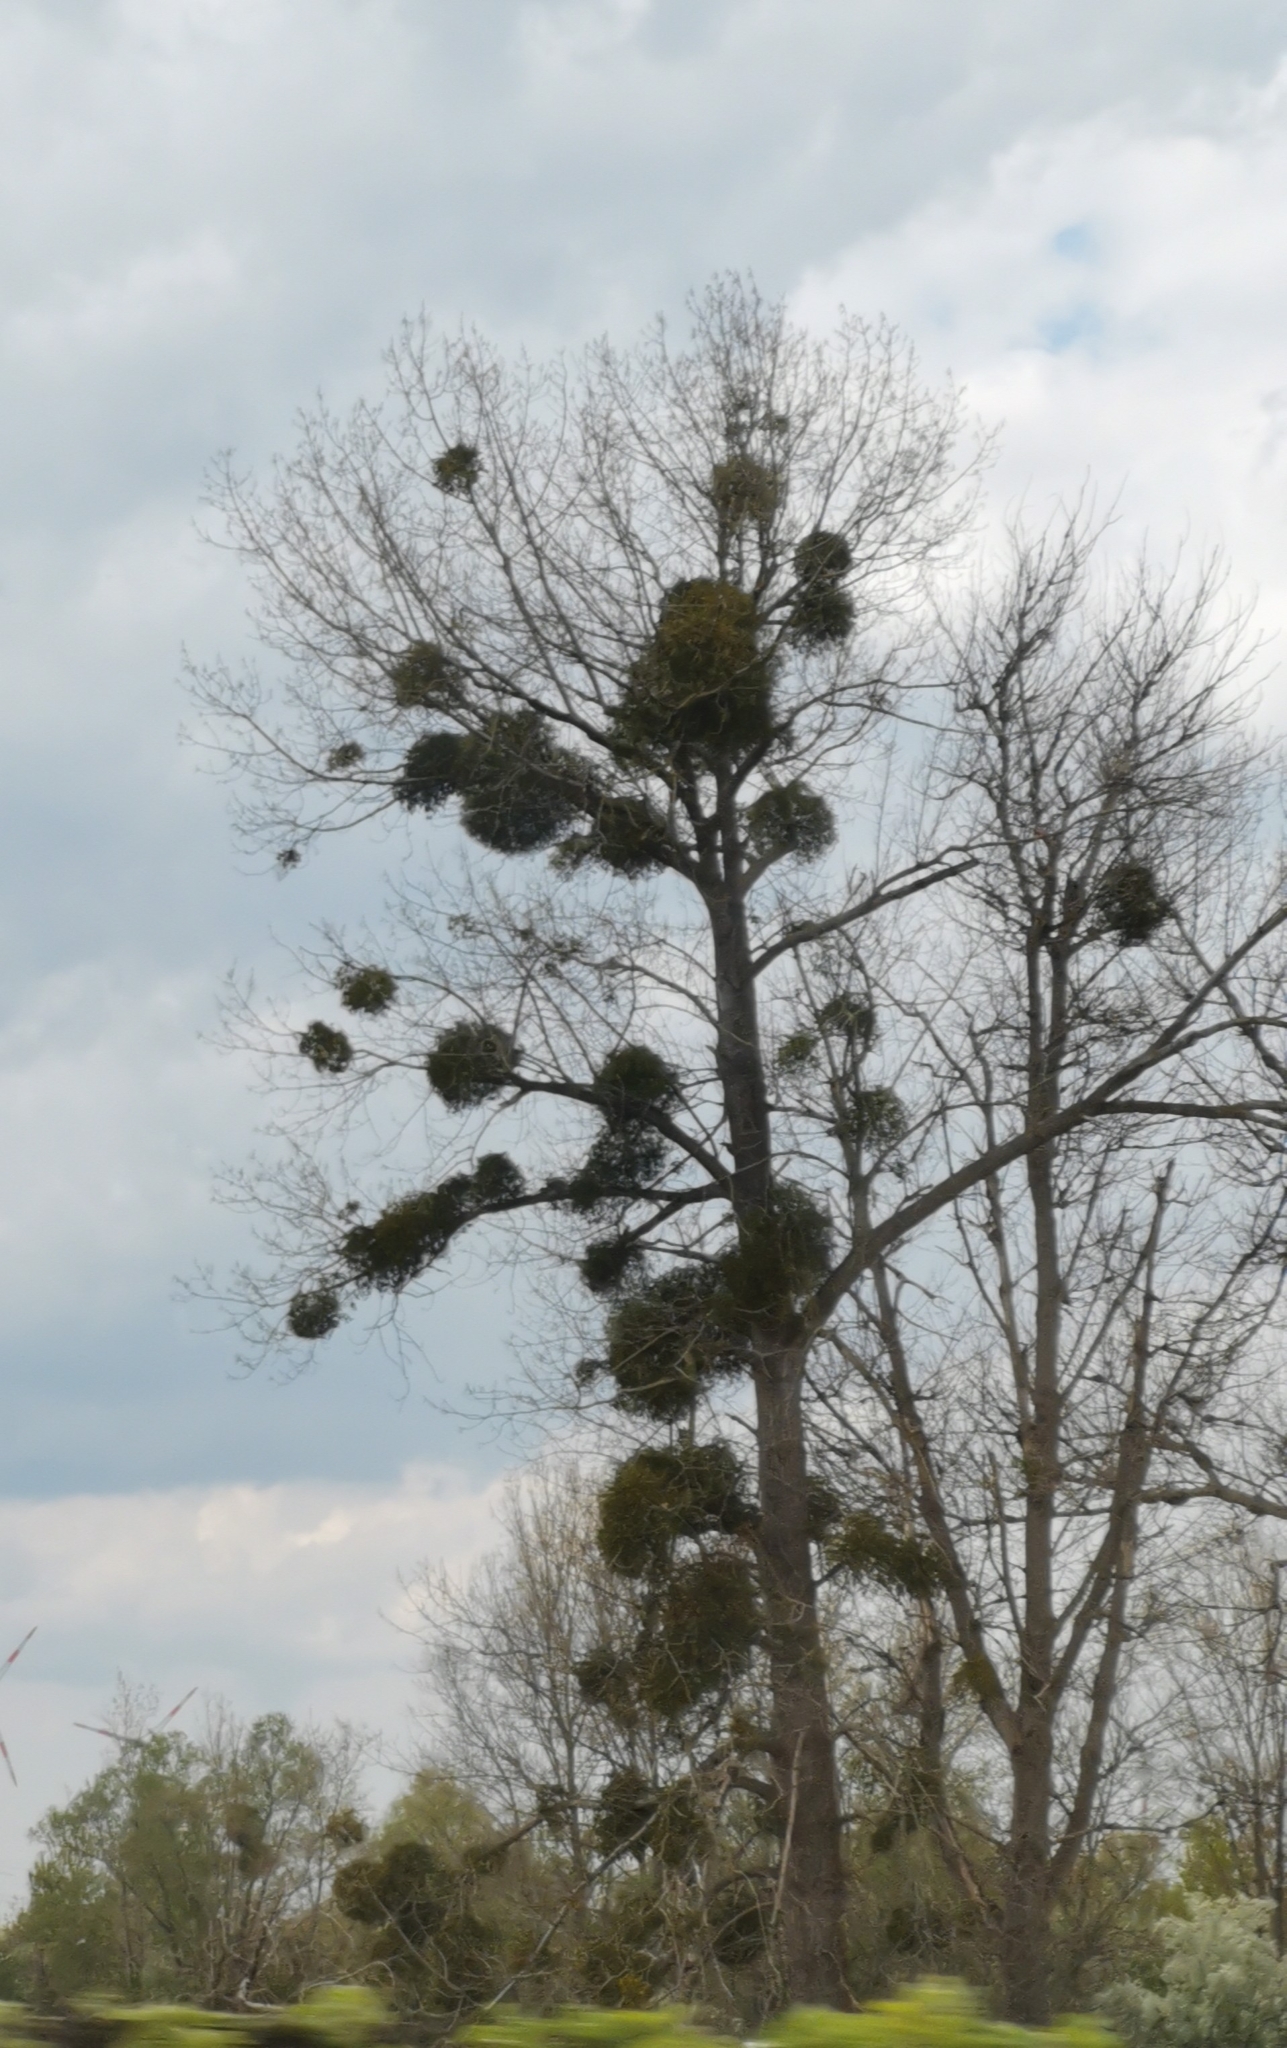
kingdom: Plantae
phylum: Tracheophyta
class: Magnoliopsida
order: Santalales
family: Viscaceae
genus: Viscum
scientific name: Viscum album
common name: Mistletoe
